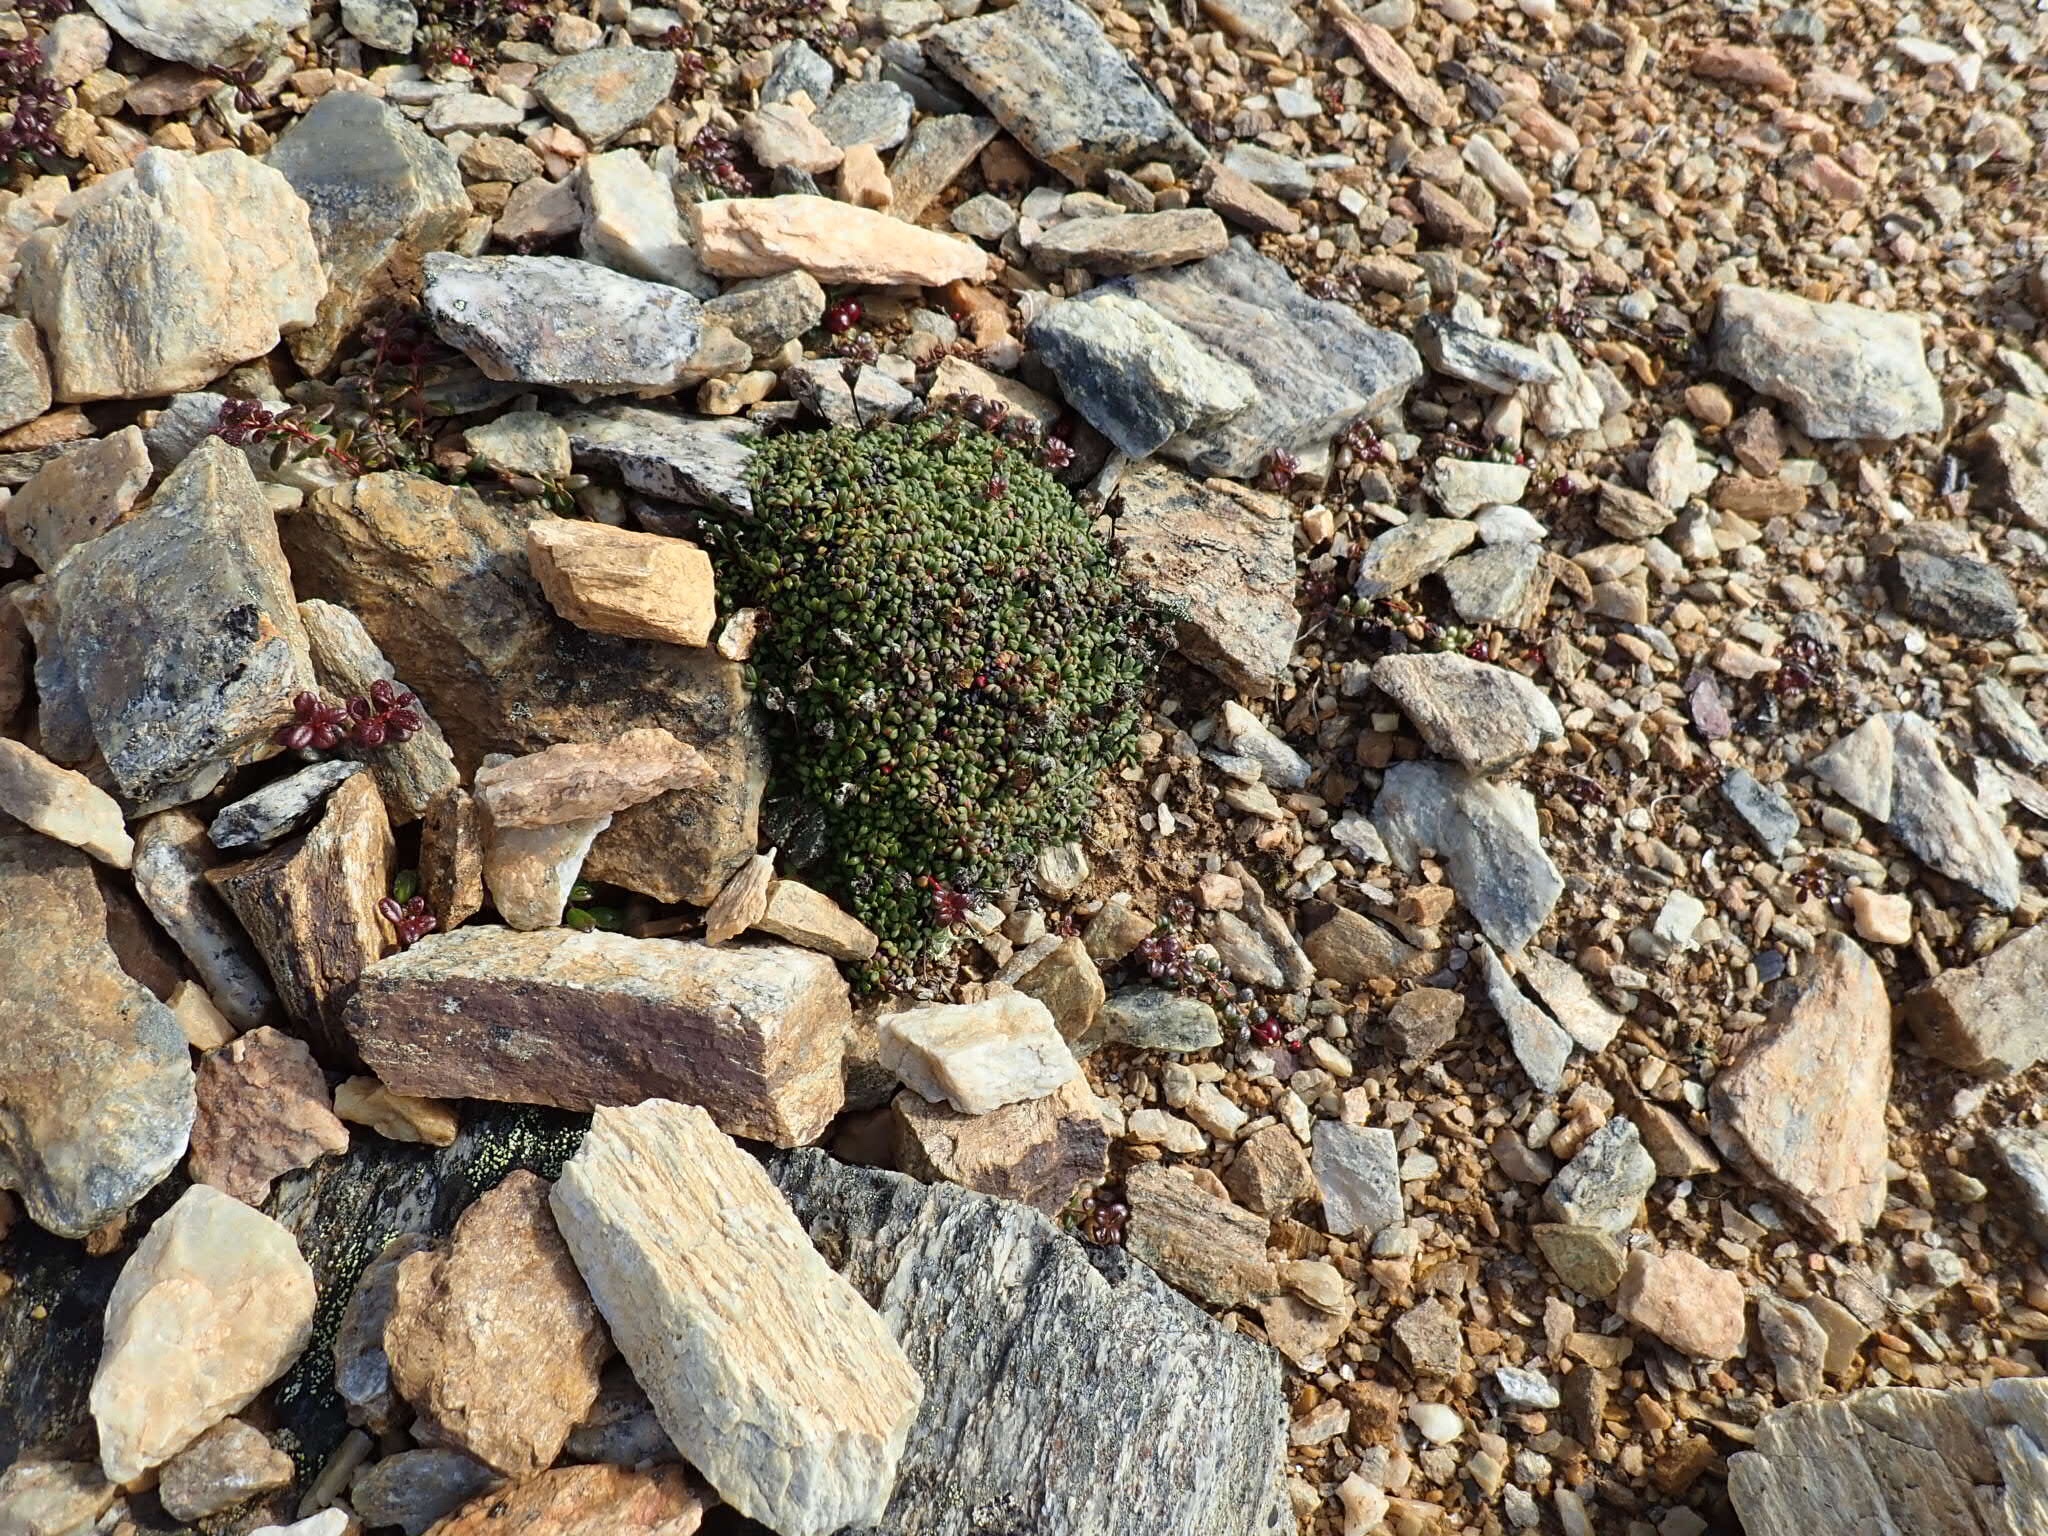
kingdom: Plantae
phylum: Tracheophyta
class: Magnoliopsida
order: Ericales
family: Diapensiaceae
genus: Diapensia
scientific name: Diapensia obovata
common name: Alaska diapensia
